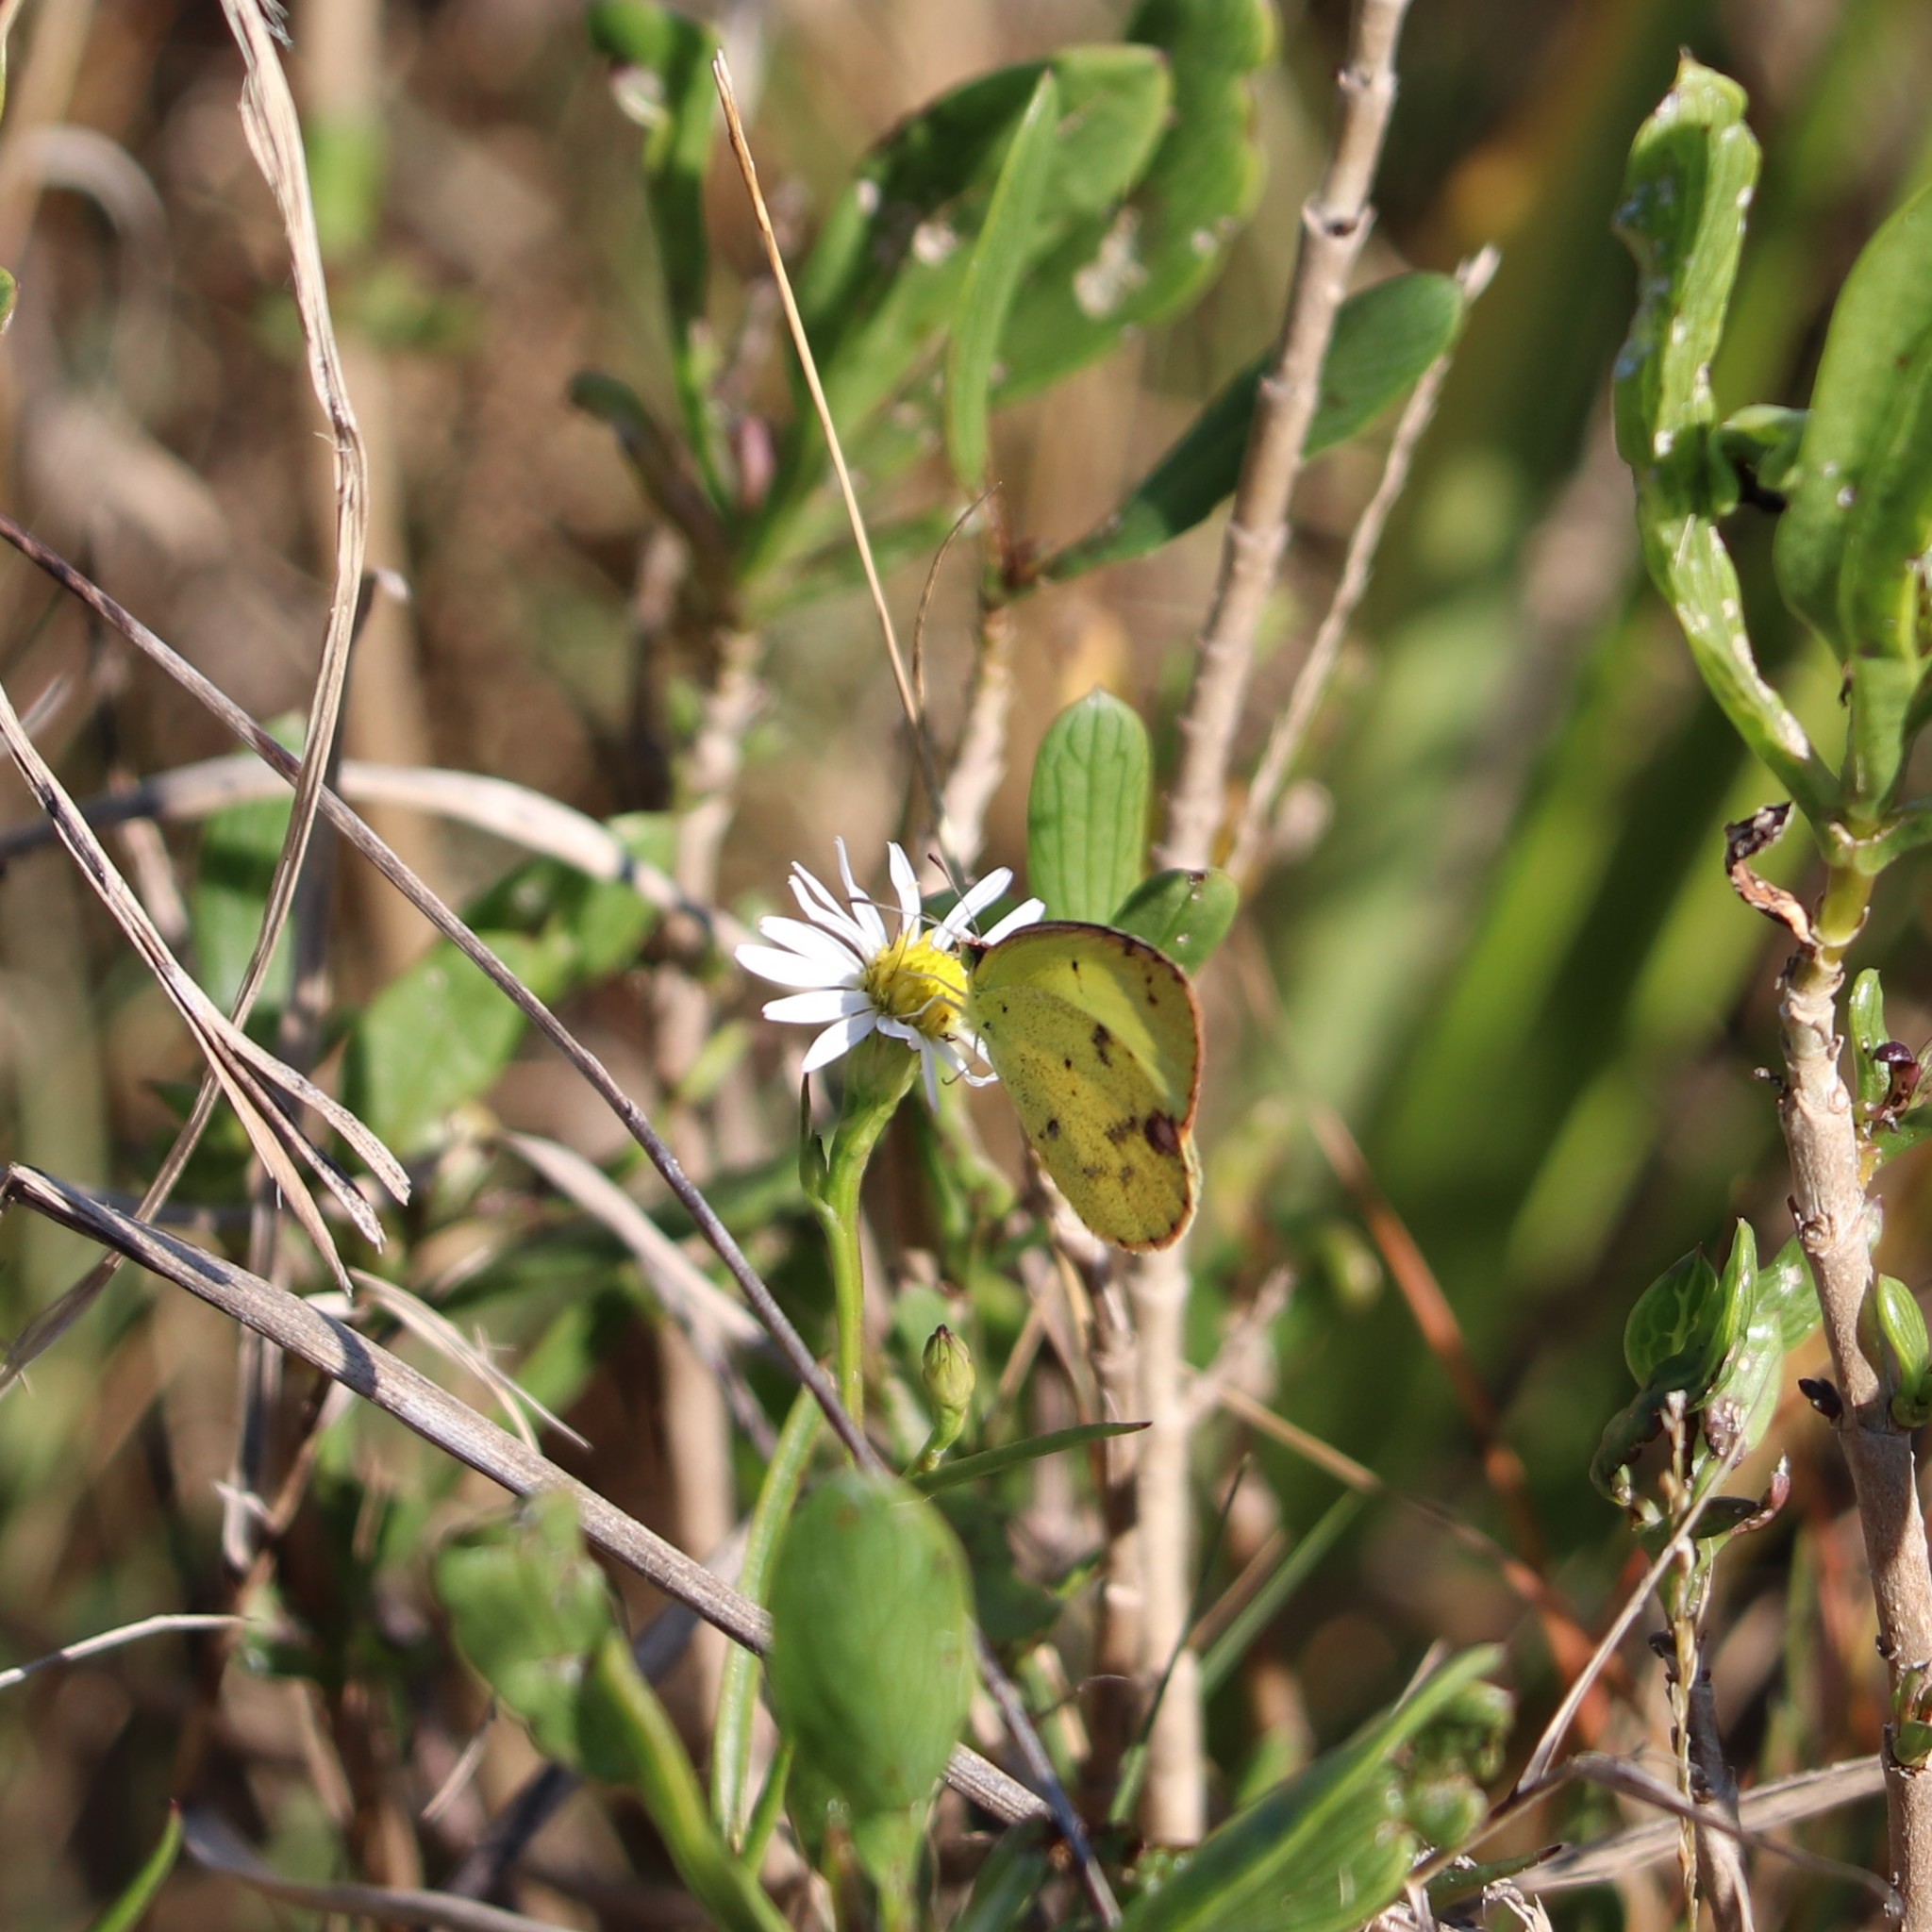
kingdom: Animalia
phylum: Arthropoda
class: Insecta
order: Lepidoptera
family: Pieridae
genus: Pyrisitia
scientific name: Pyrisitia lisa
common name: Little yellow
